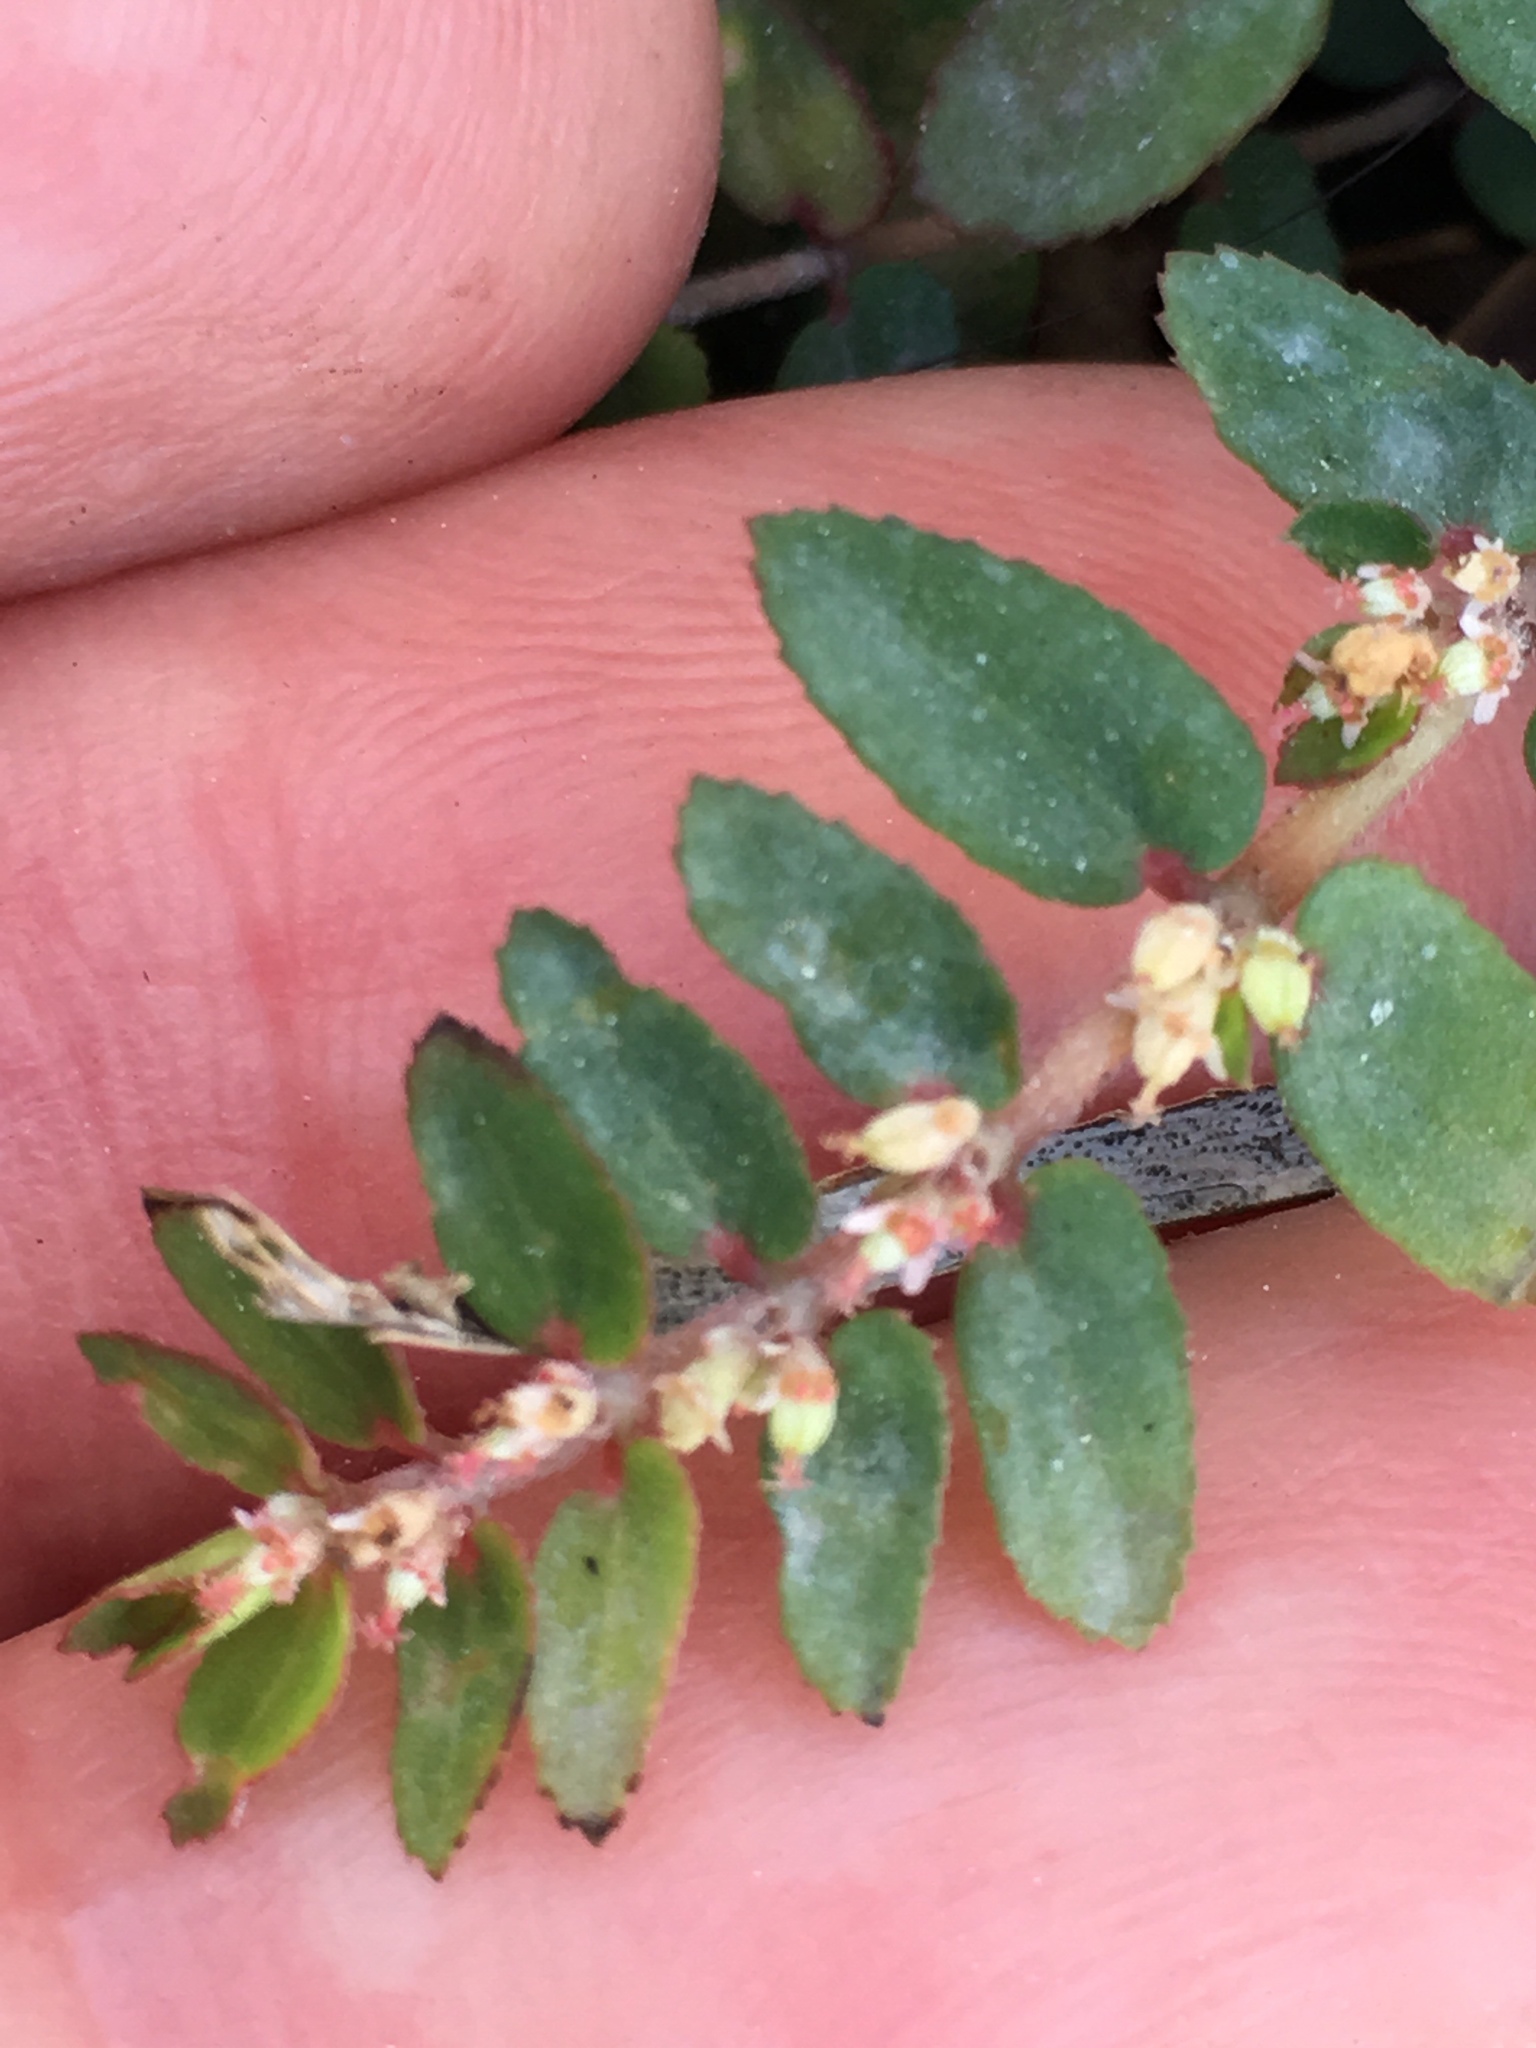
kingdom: Plantae
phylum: Tracheophyta
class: Magnoliopsida
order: Malpighiales
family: Euphorbiaceae
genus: Euphorbia
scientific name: Euphorbia dioeca
